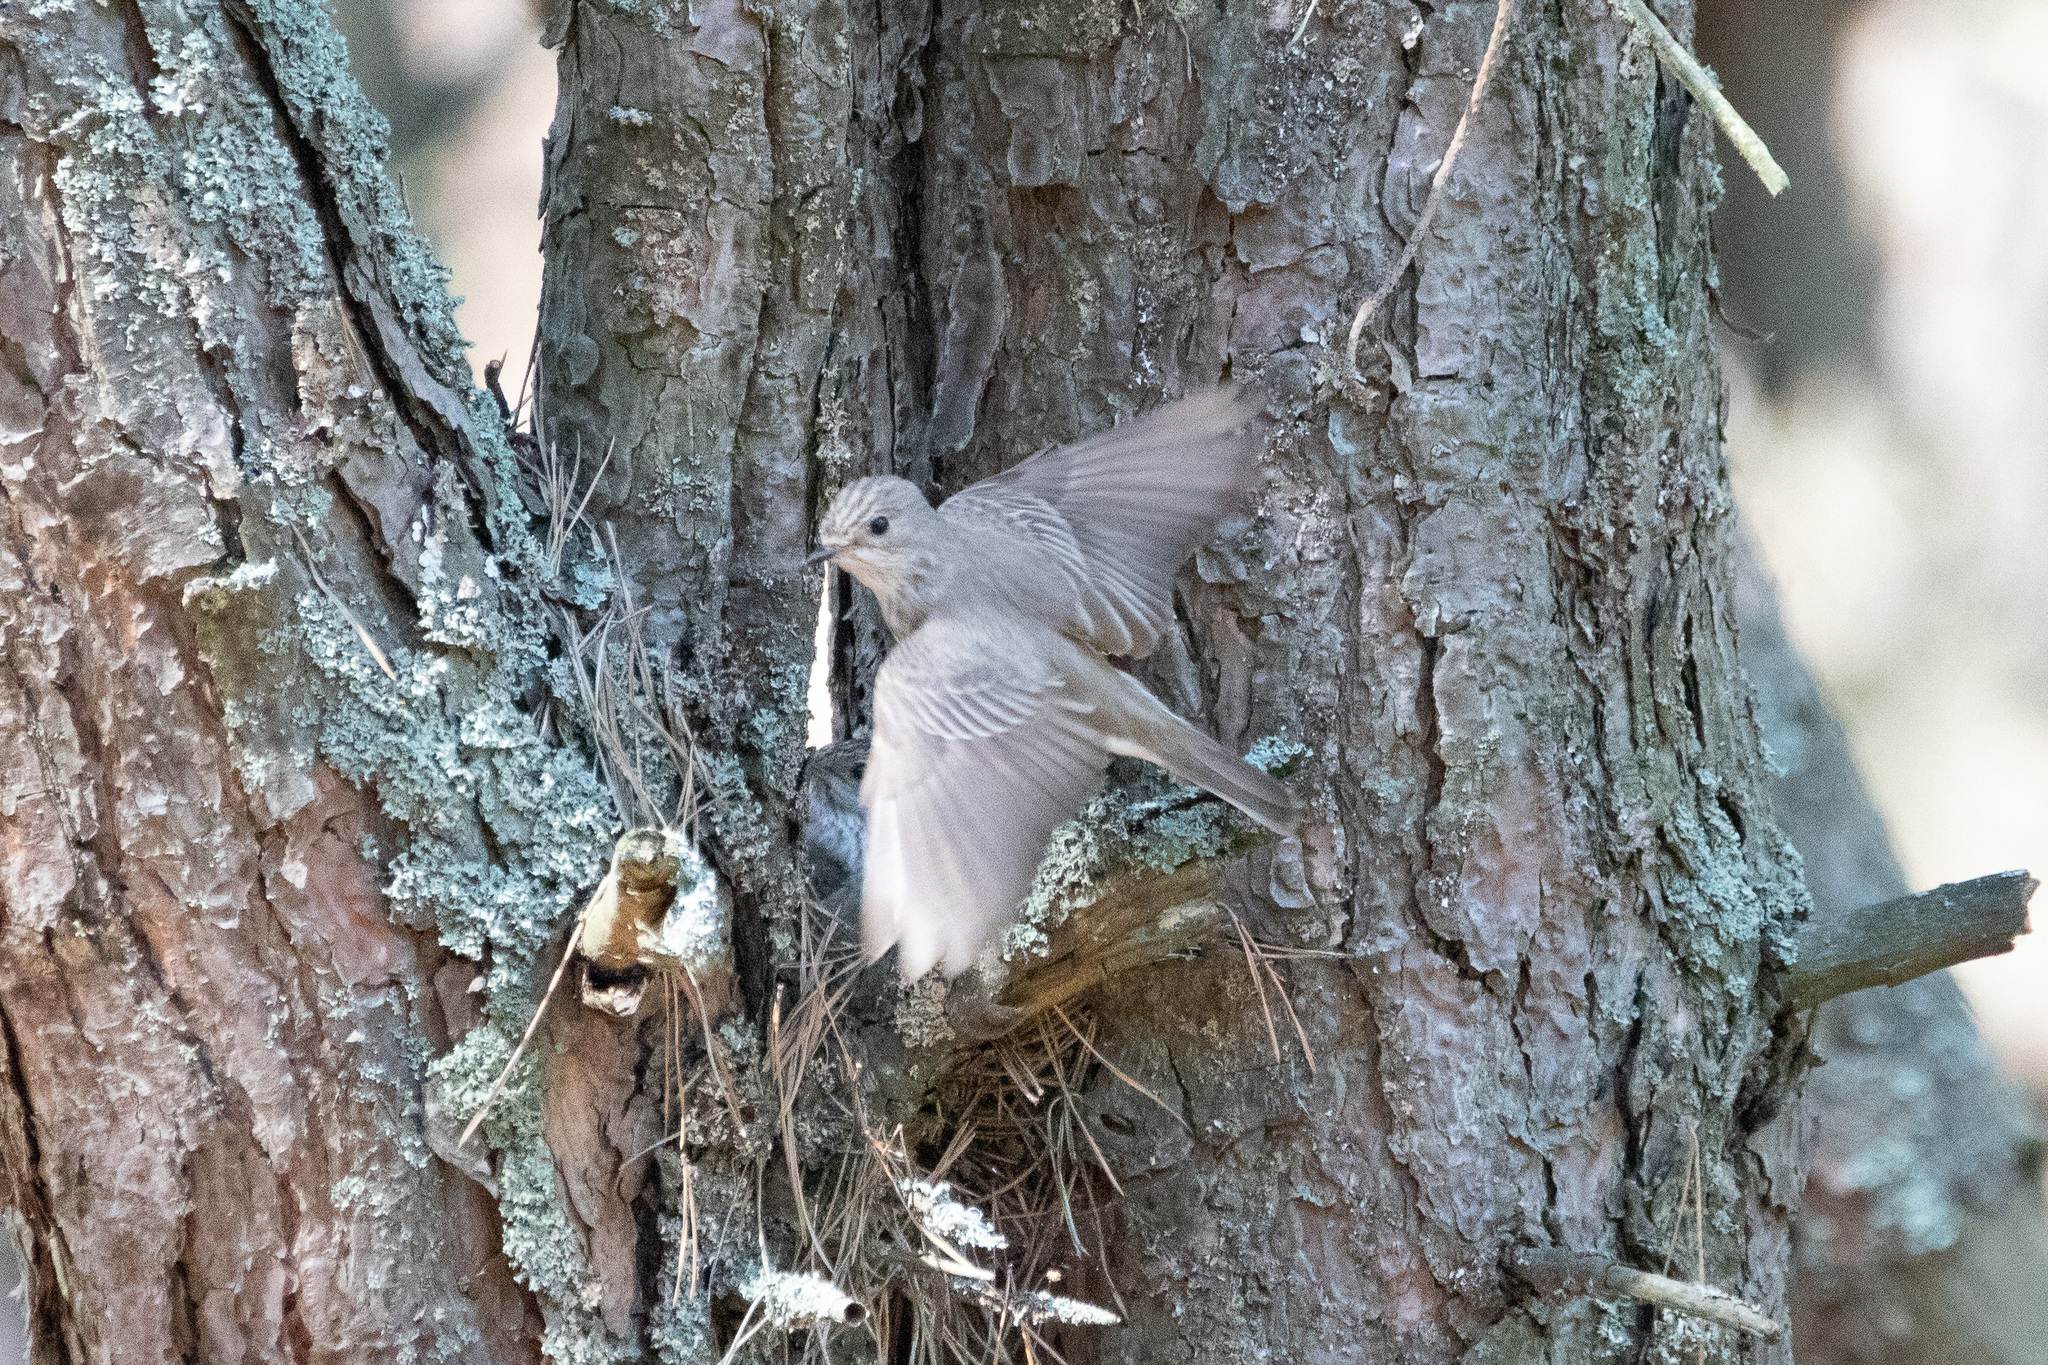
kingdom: Animalia
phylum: Chordata
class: Aves
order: Passeriformes
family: Muscicapidae
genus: Muscicapa
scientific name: Muscicapa striata
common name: Spotted flycatcher
